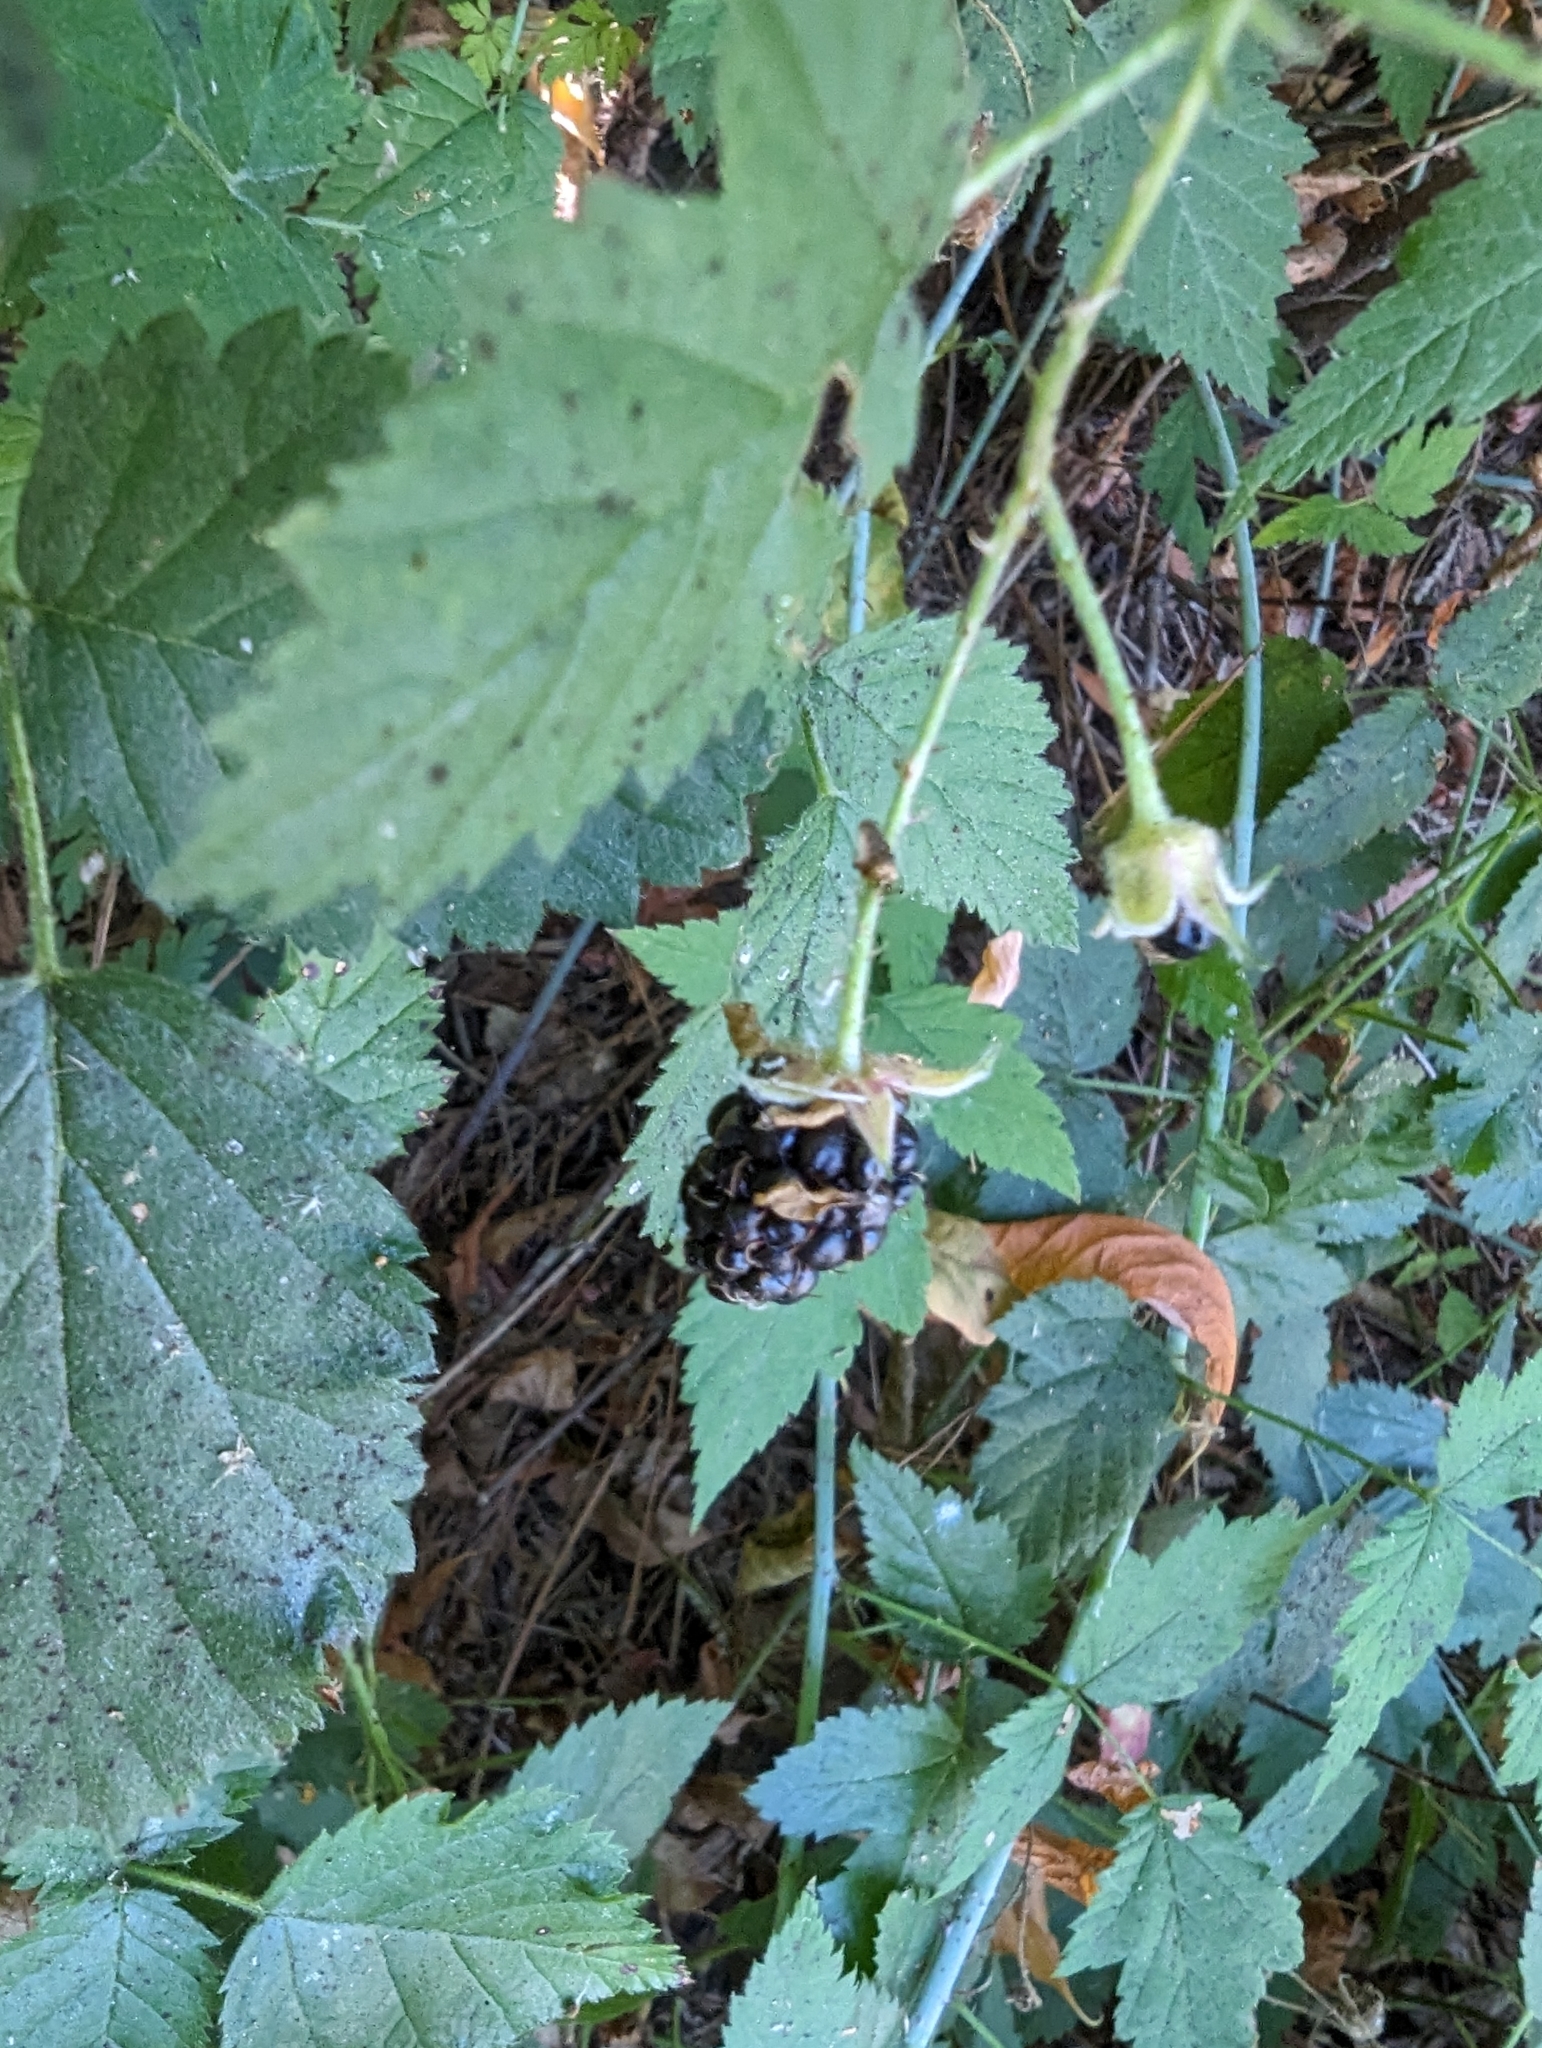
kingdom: Plantae
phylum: Tracheophyta
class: Magnoliopsida
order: Rosales
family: Rosaceae
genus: Rubus
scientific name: Rubus ursinus
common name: Pacific blackberry
